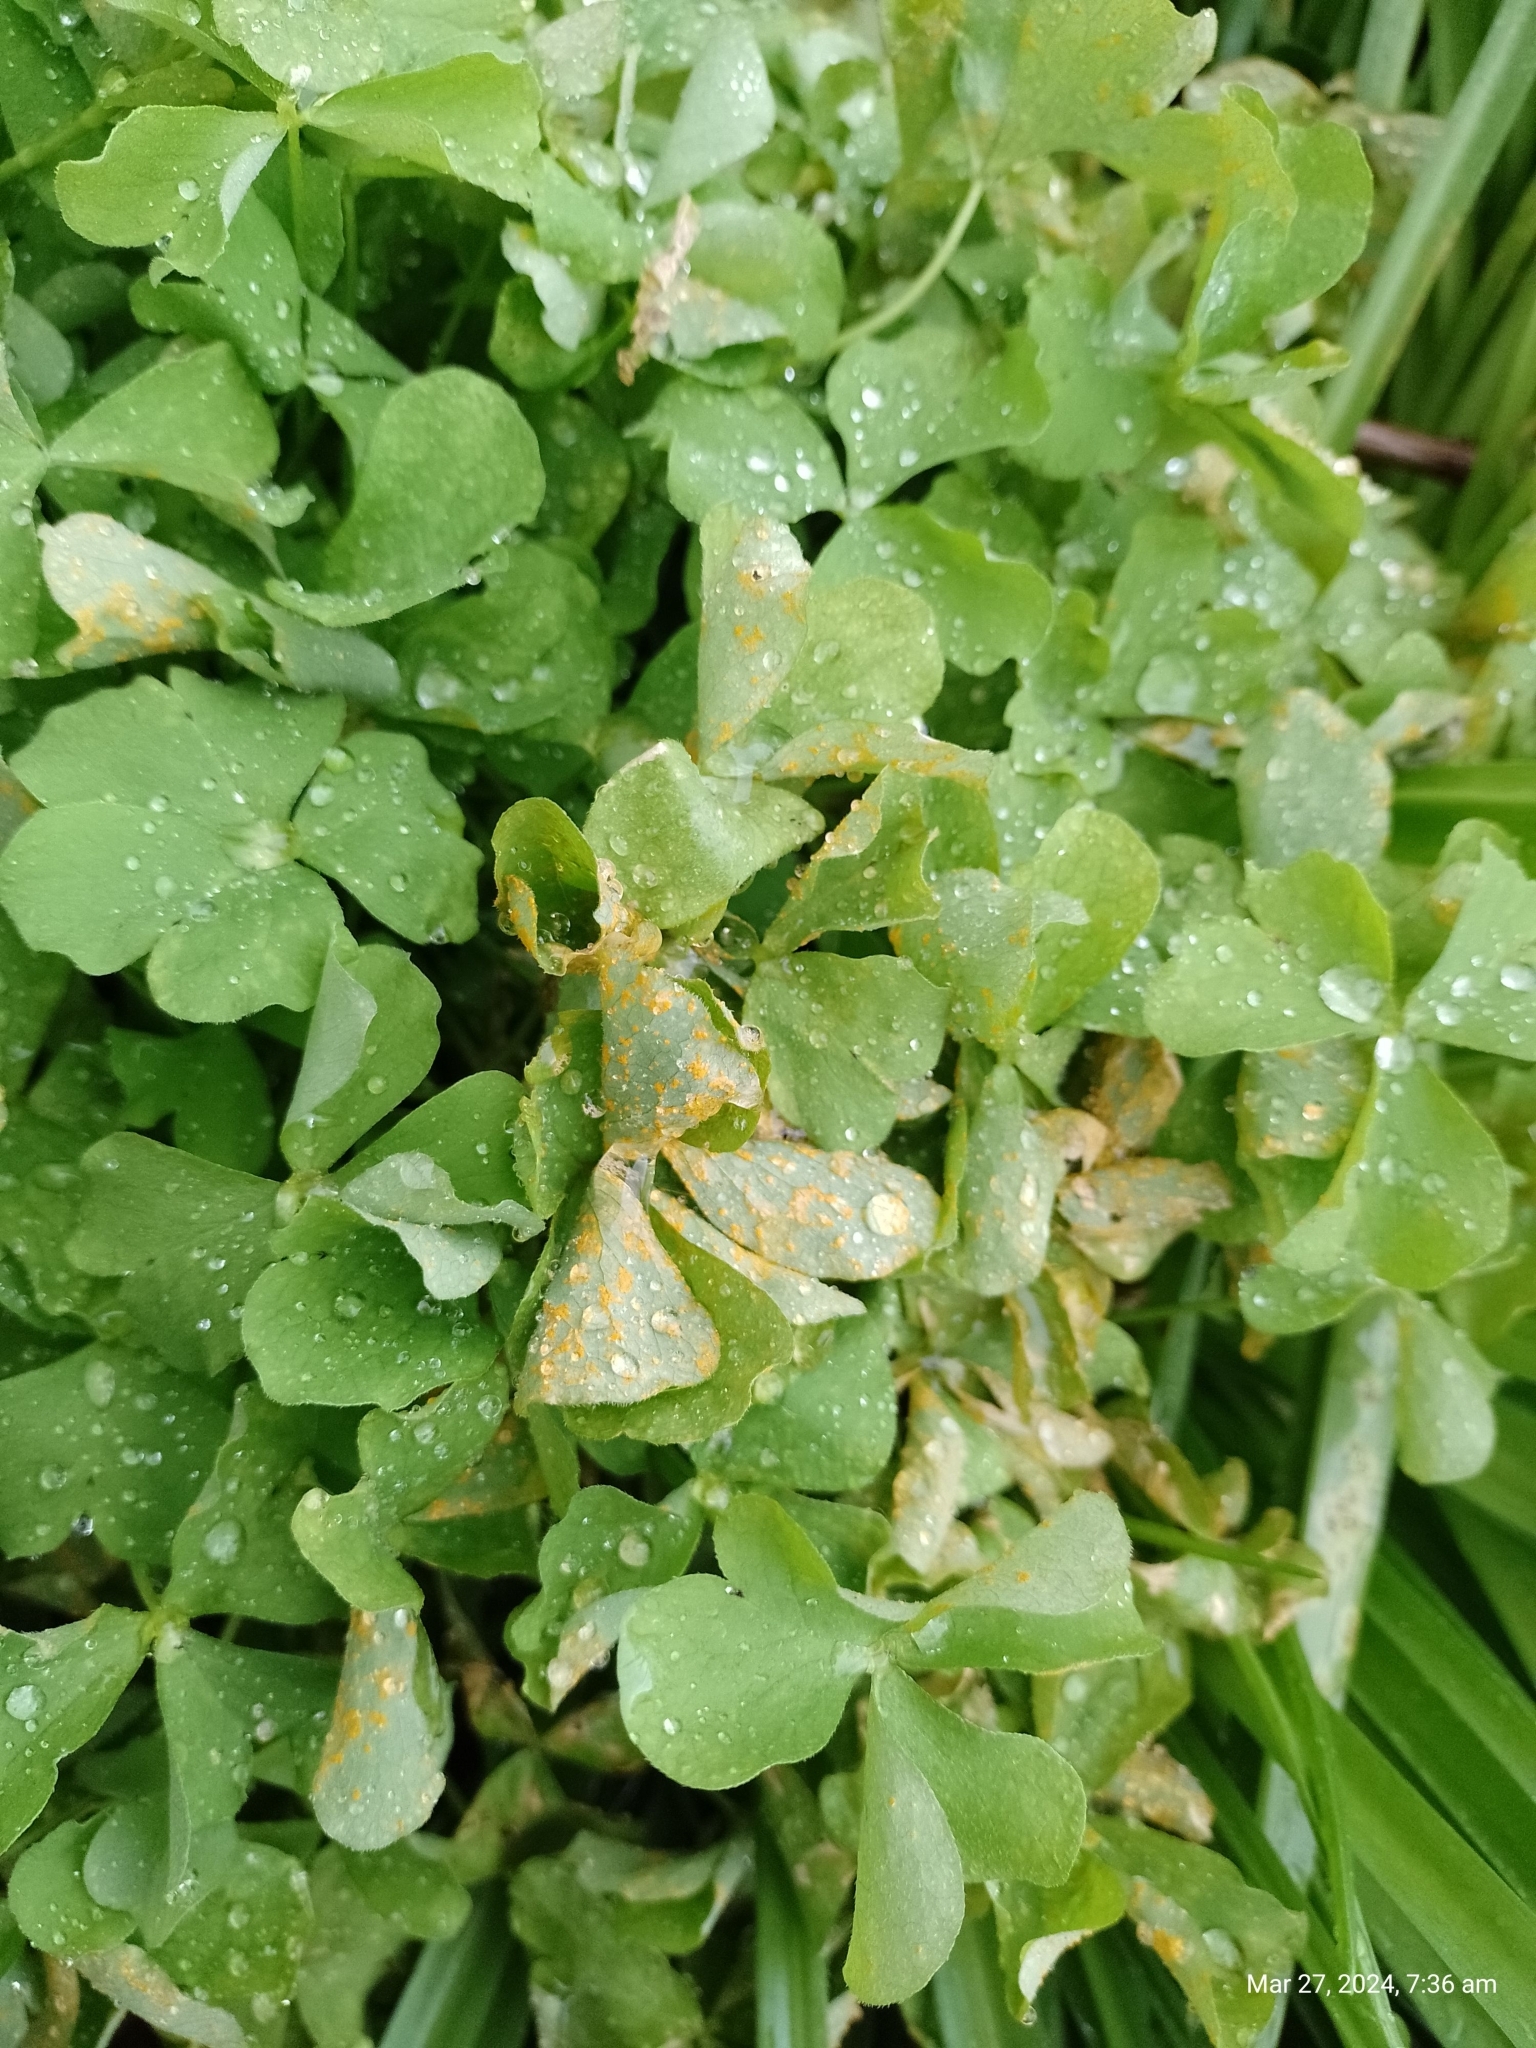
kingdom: Fungi
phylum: Basidiomycota
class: Pucciniomycetes
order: Pucciniales
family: Pucciniaceae
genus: Puccinia
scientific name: Puccinia oxalidis
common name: Oxalis rust
